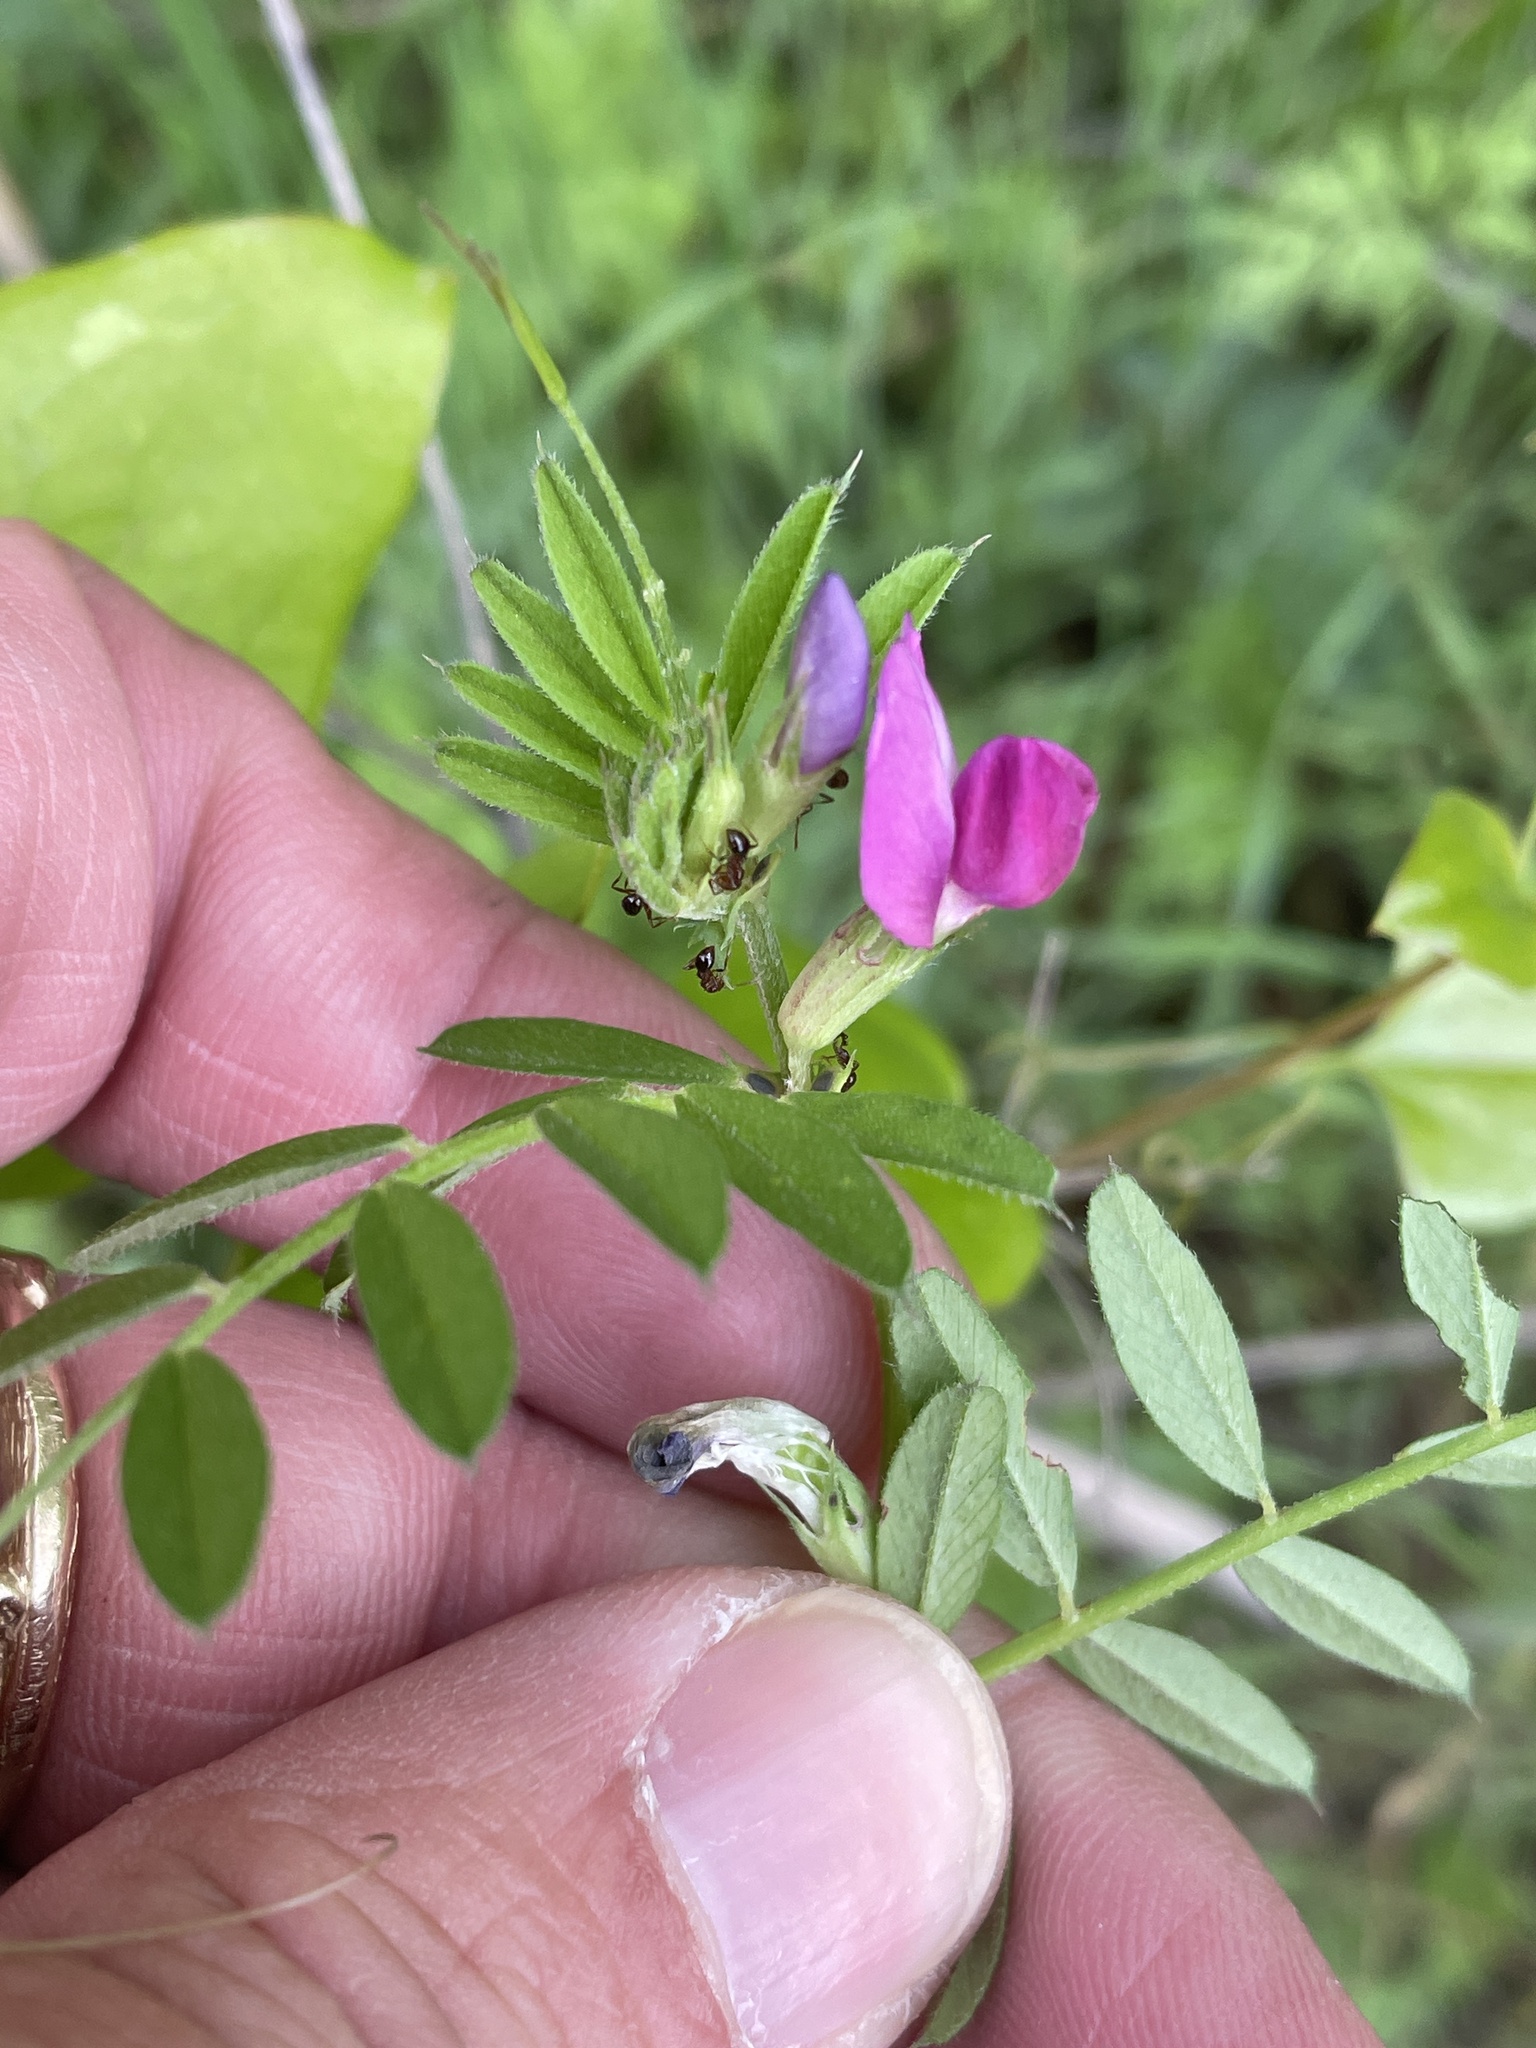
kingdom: Plantae
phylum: Tracheophyta
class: Magnoliopsida
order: Fabales
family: Fabaceae
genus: Vicia
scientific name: Vicia sativa
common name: Garden vetch
